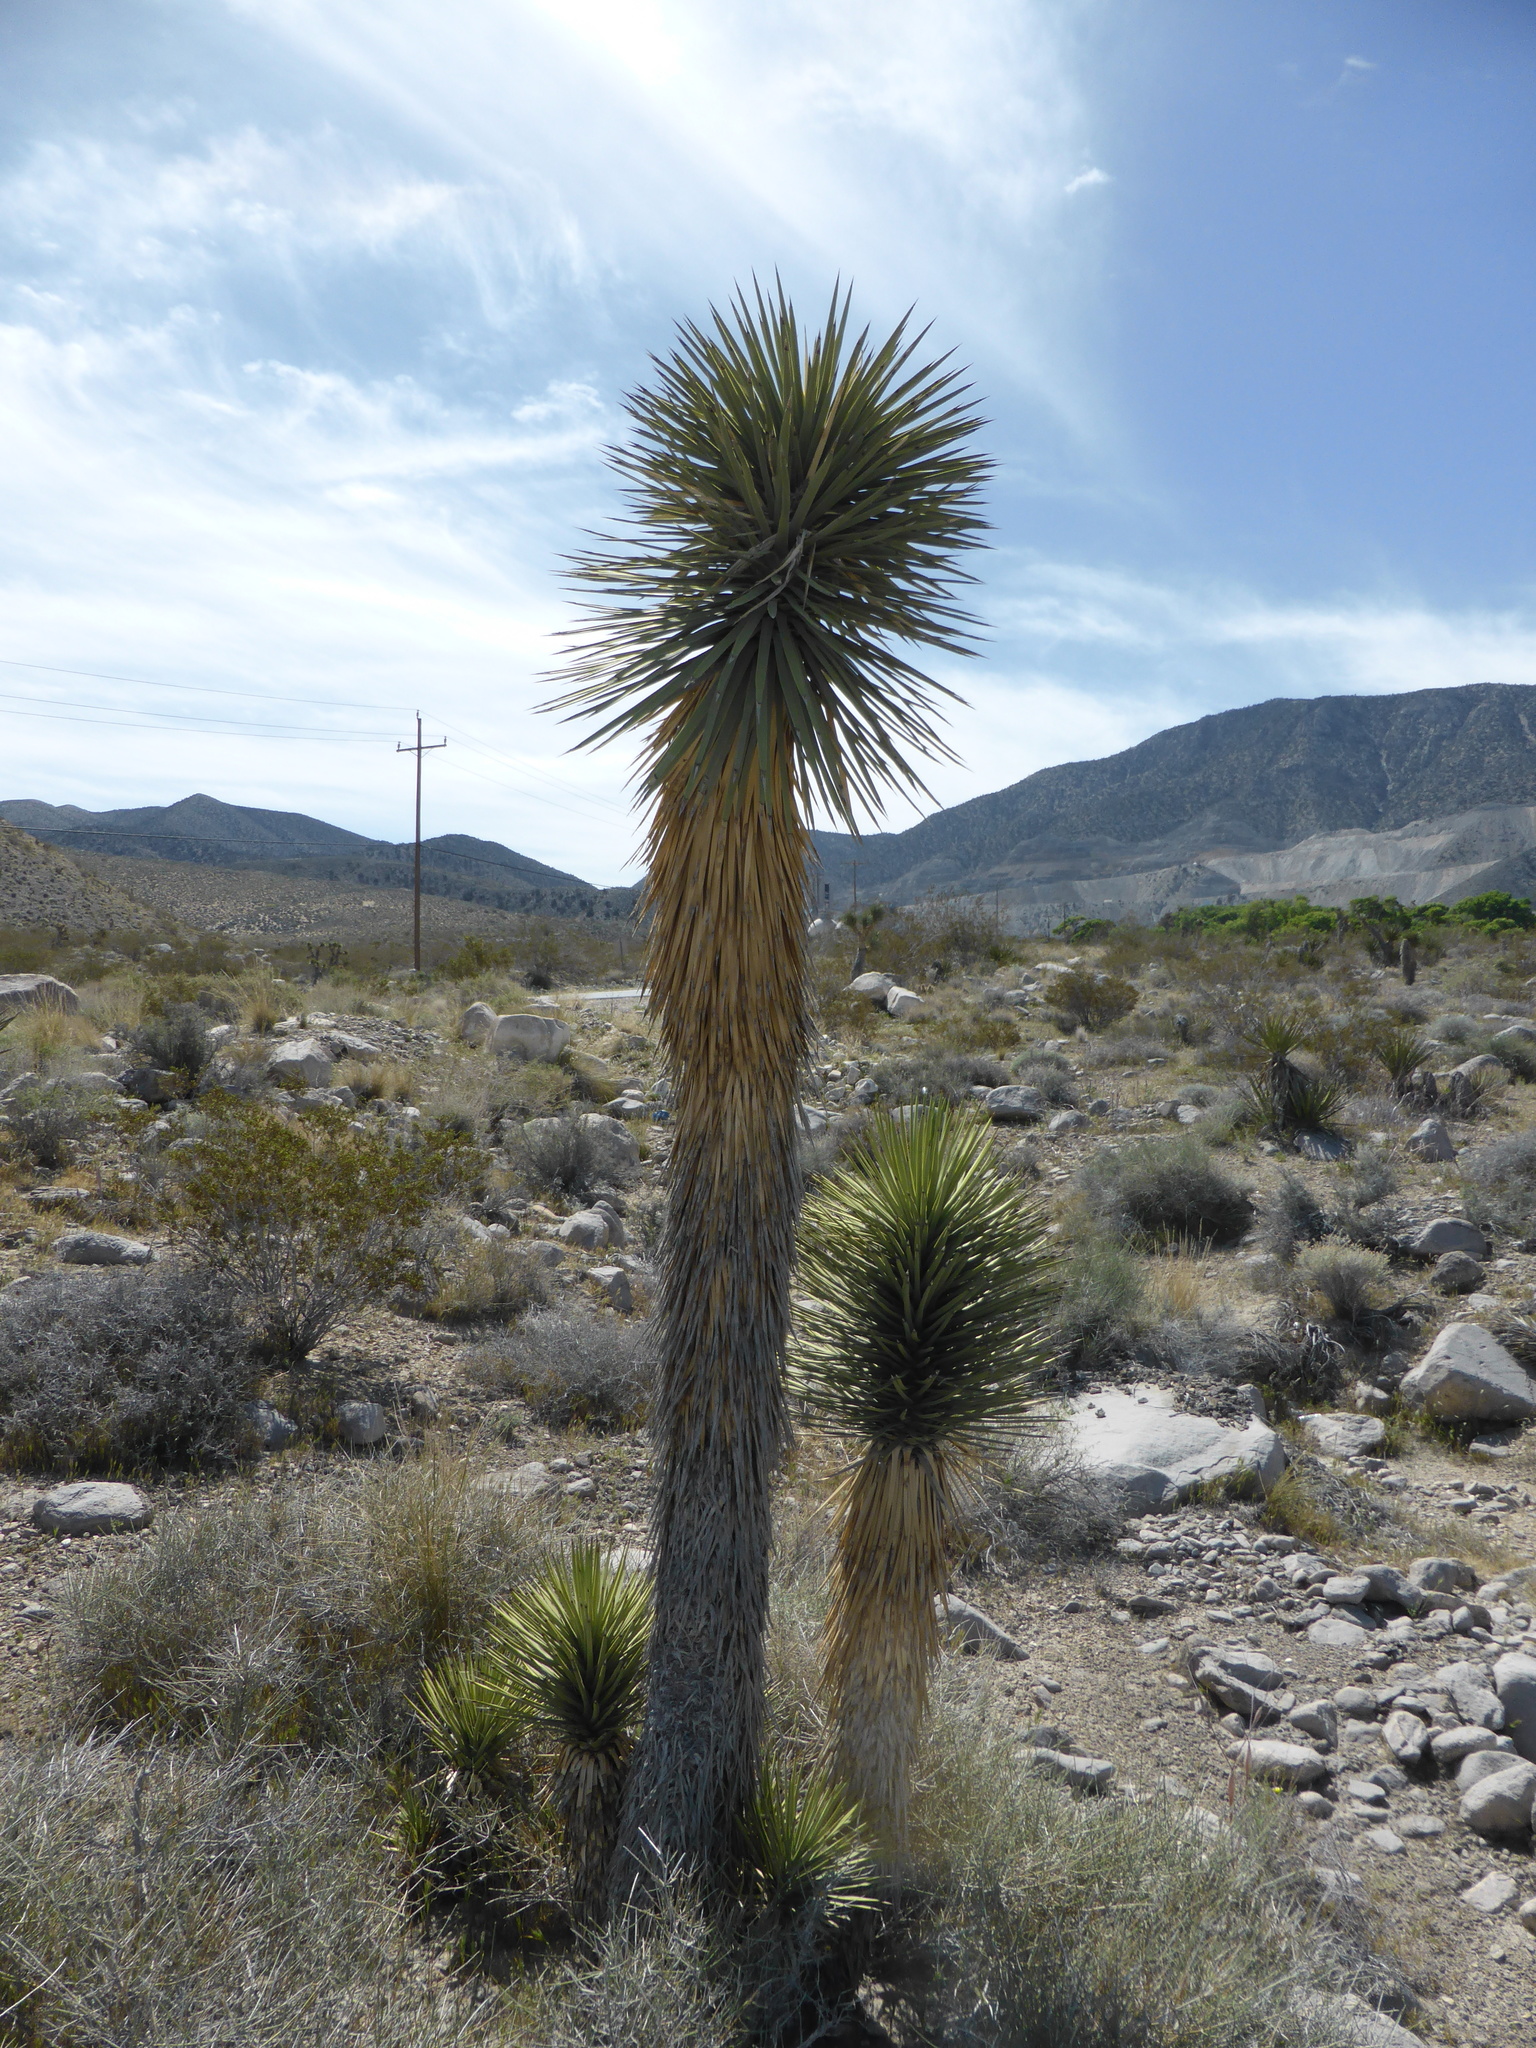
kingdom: Plantae
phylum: Tracheophyta
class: Liliopsida
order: Asparagales
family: Asparagaceae
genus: Yucca
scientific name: Yucca brevifolia
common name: Joshua tree
